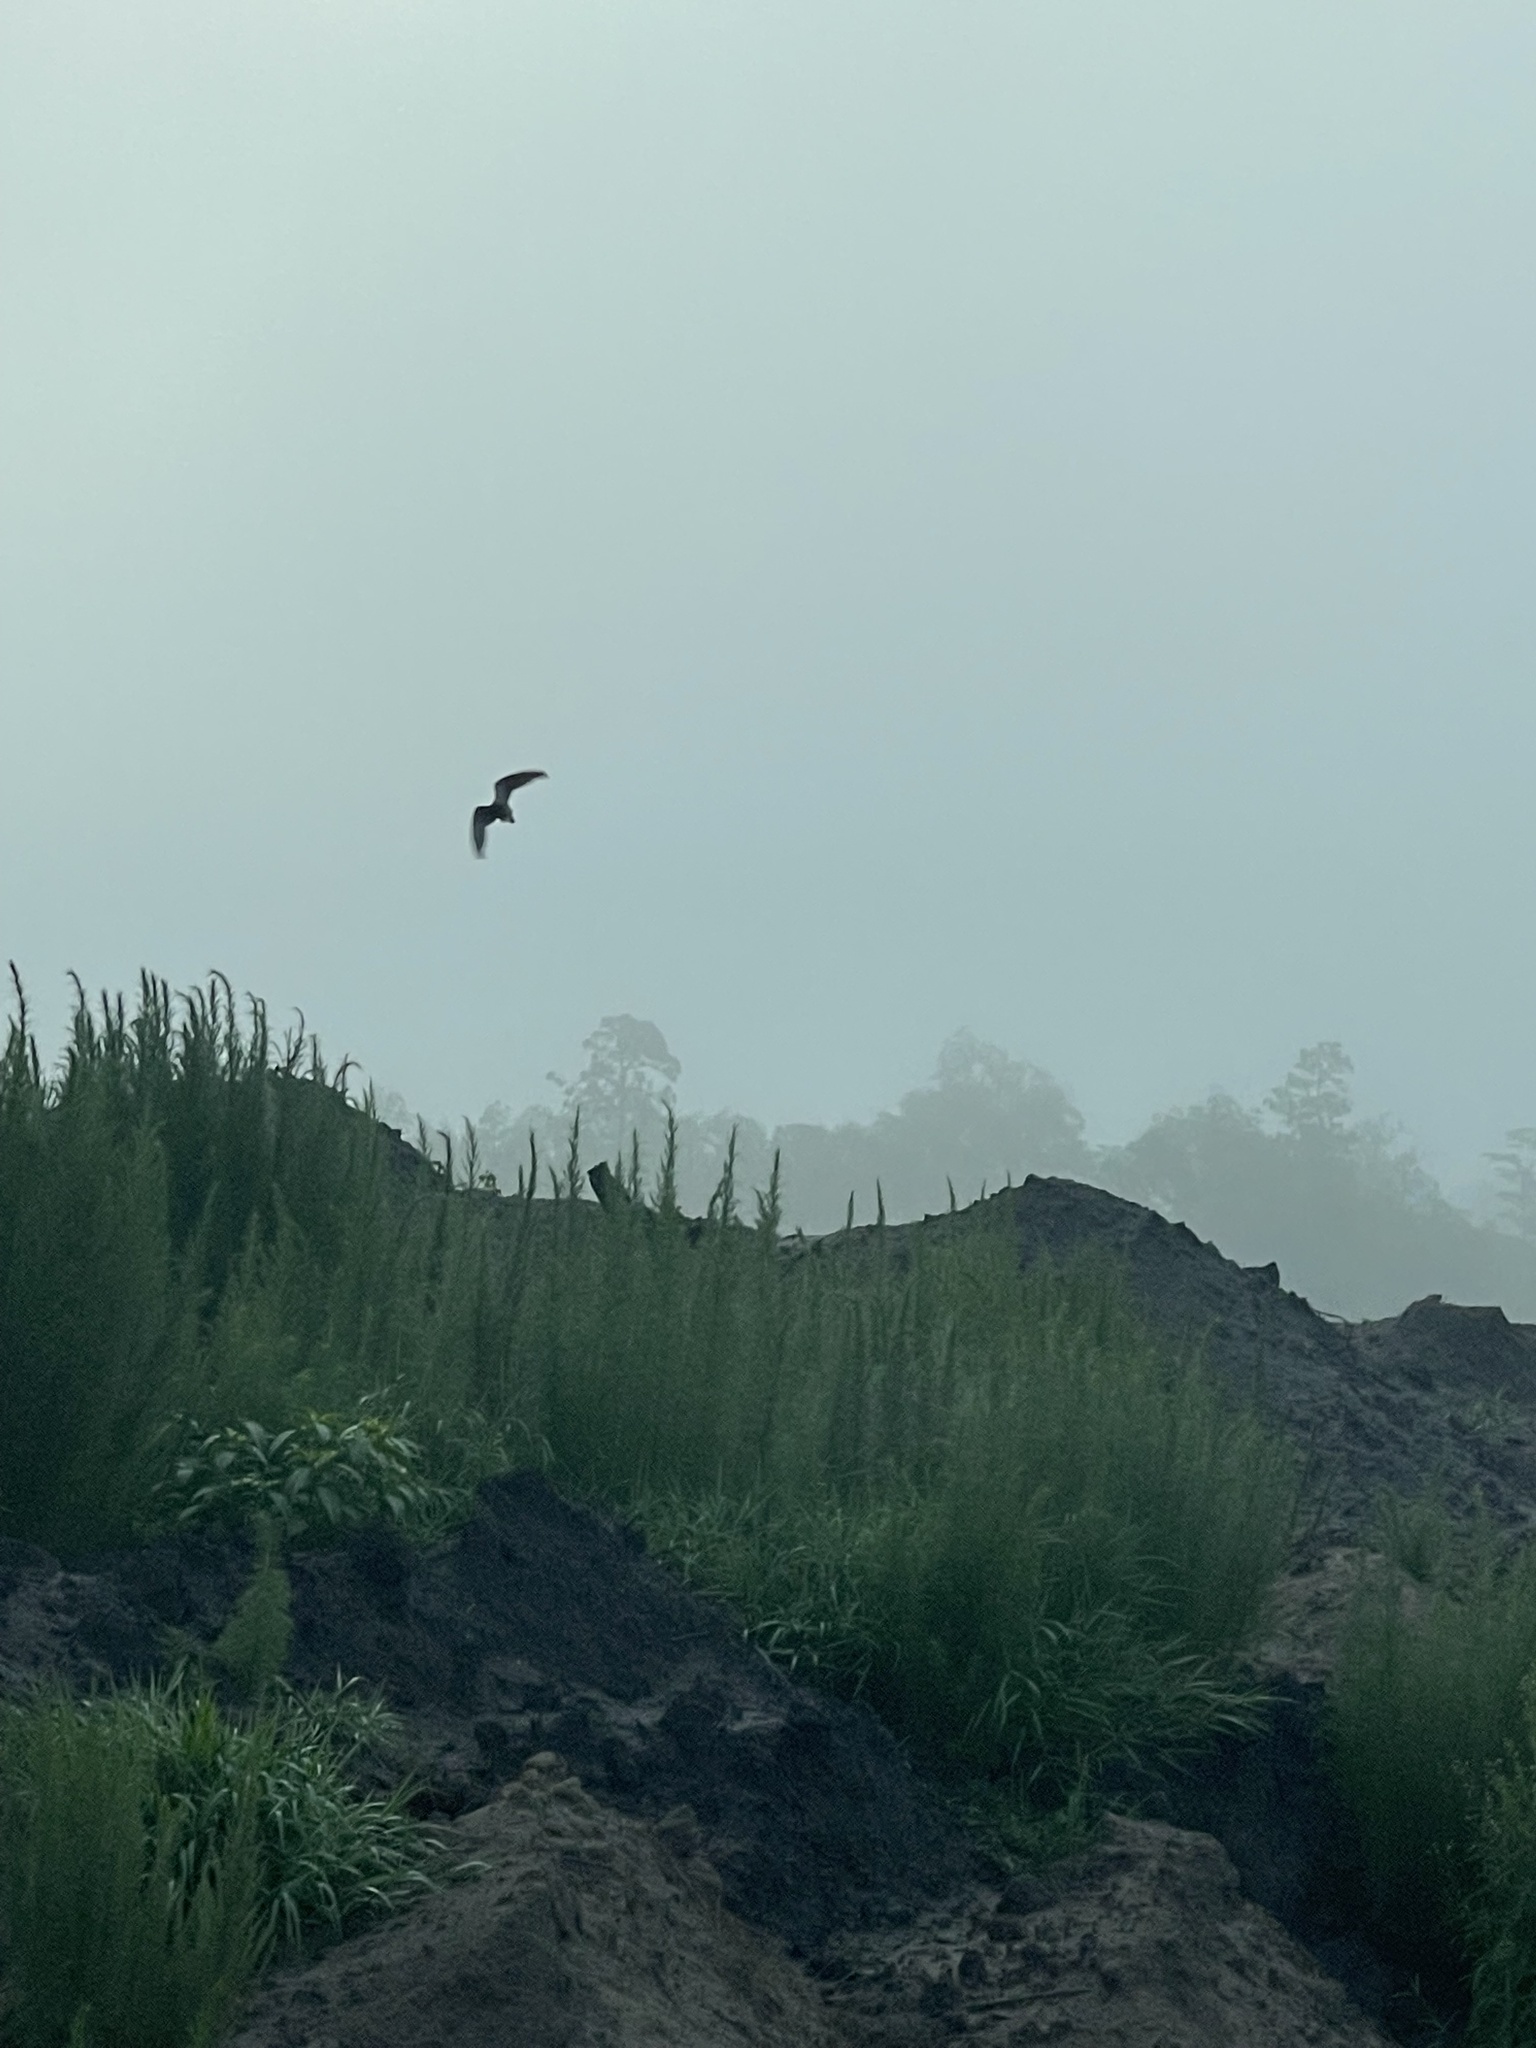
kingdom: Animalia
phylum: Chordata
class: Aves
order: Columbiformes
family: Columbidae
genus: Zenaida
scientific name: Zenaida macroura
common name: Mourning dove
